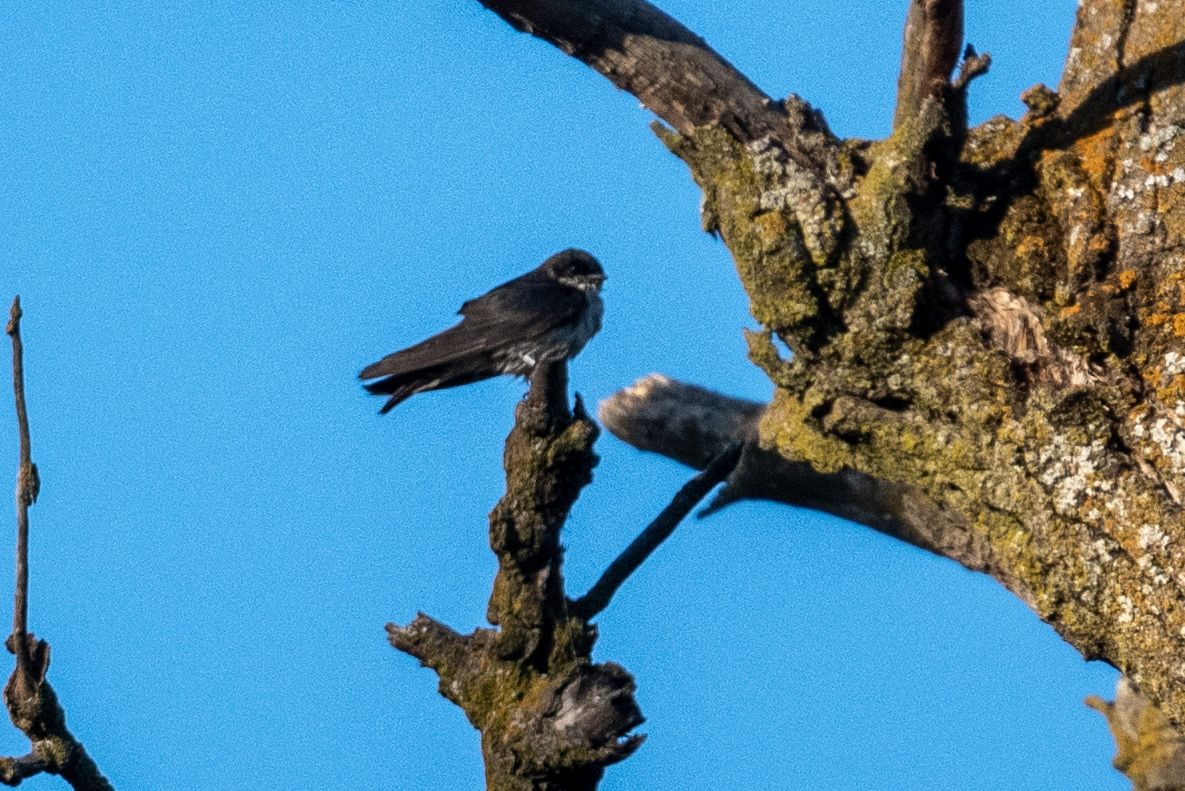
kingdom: Animalia
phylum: Chordata
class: Aves
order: Passeriformes
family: Hirundinidae
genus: Tachycineta
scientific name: Tachycineta bicolor
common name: Tree swallow
